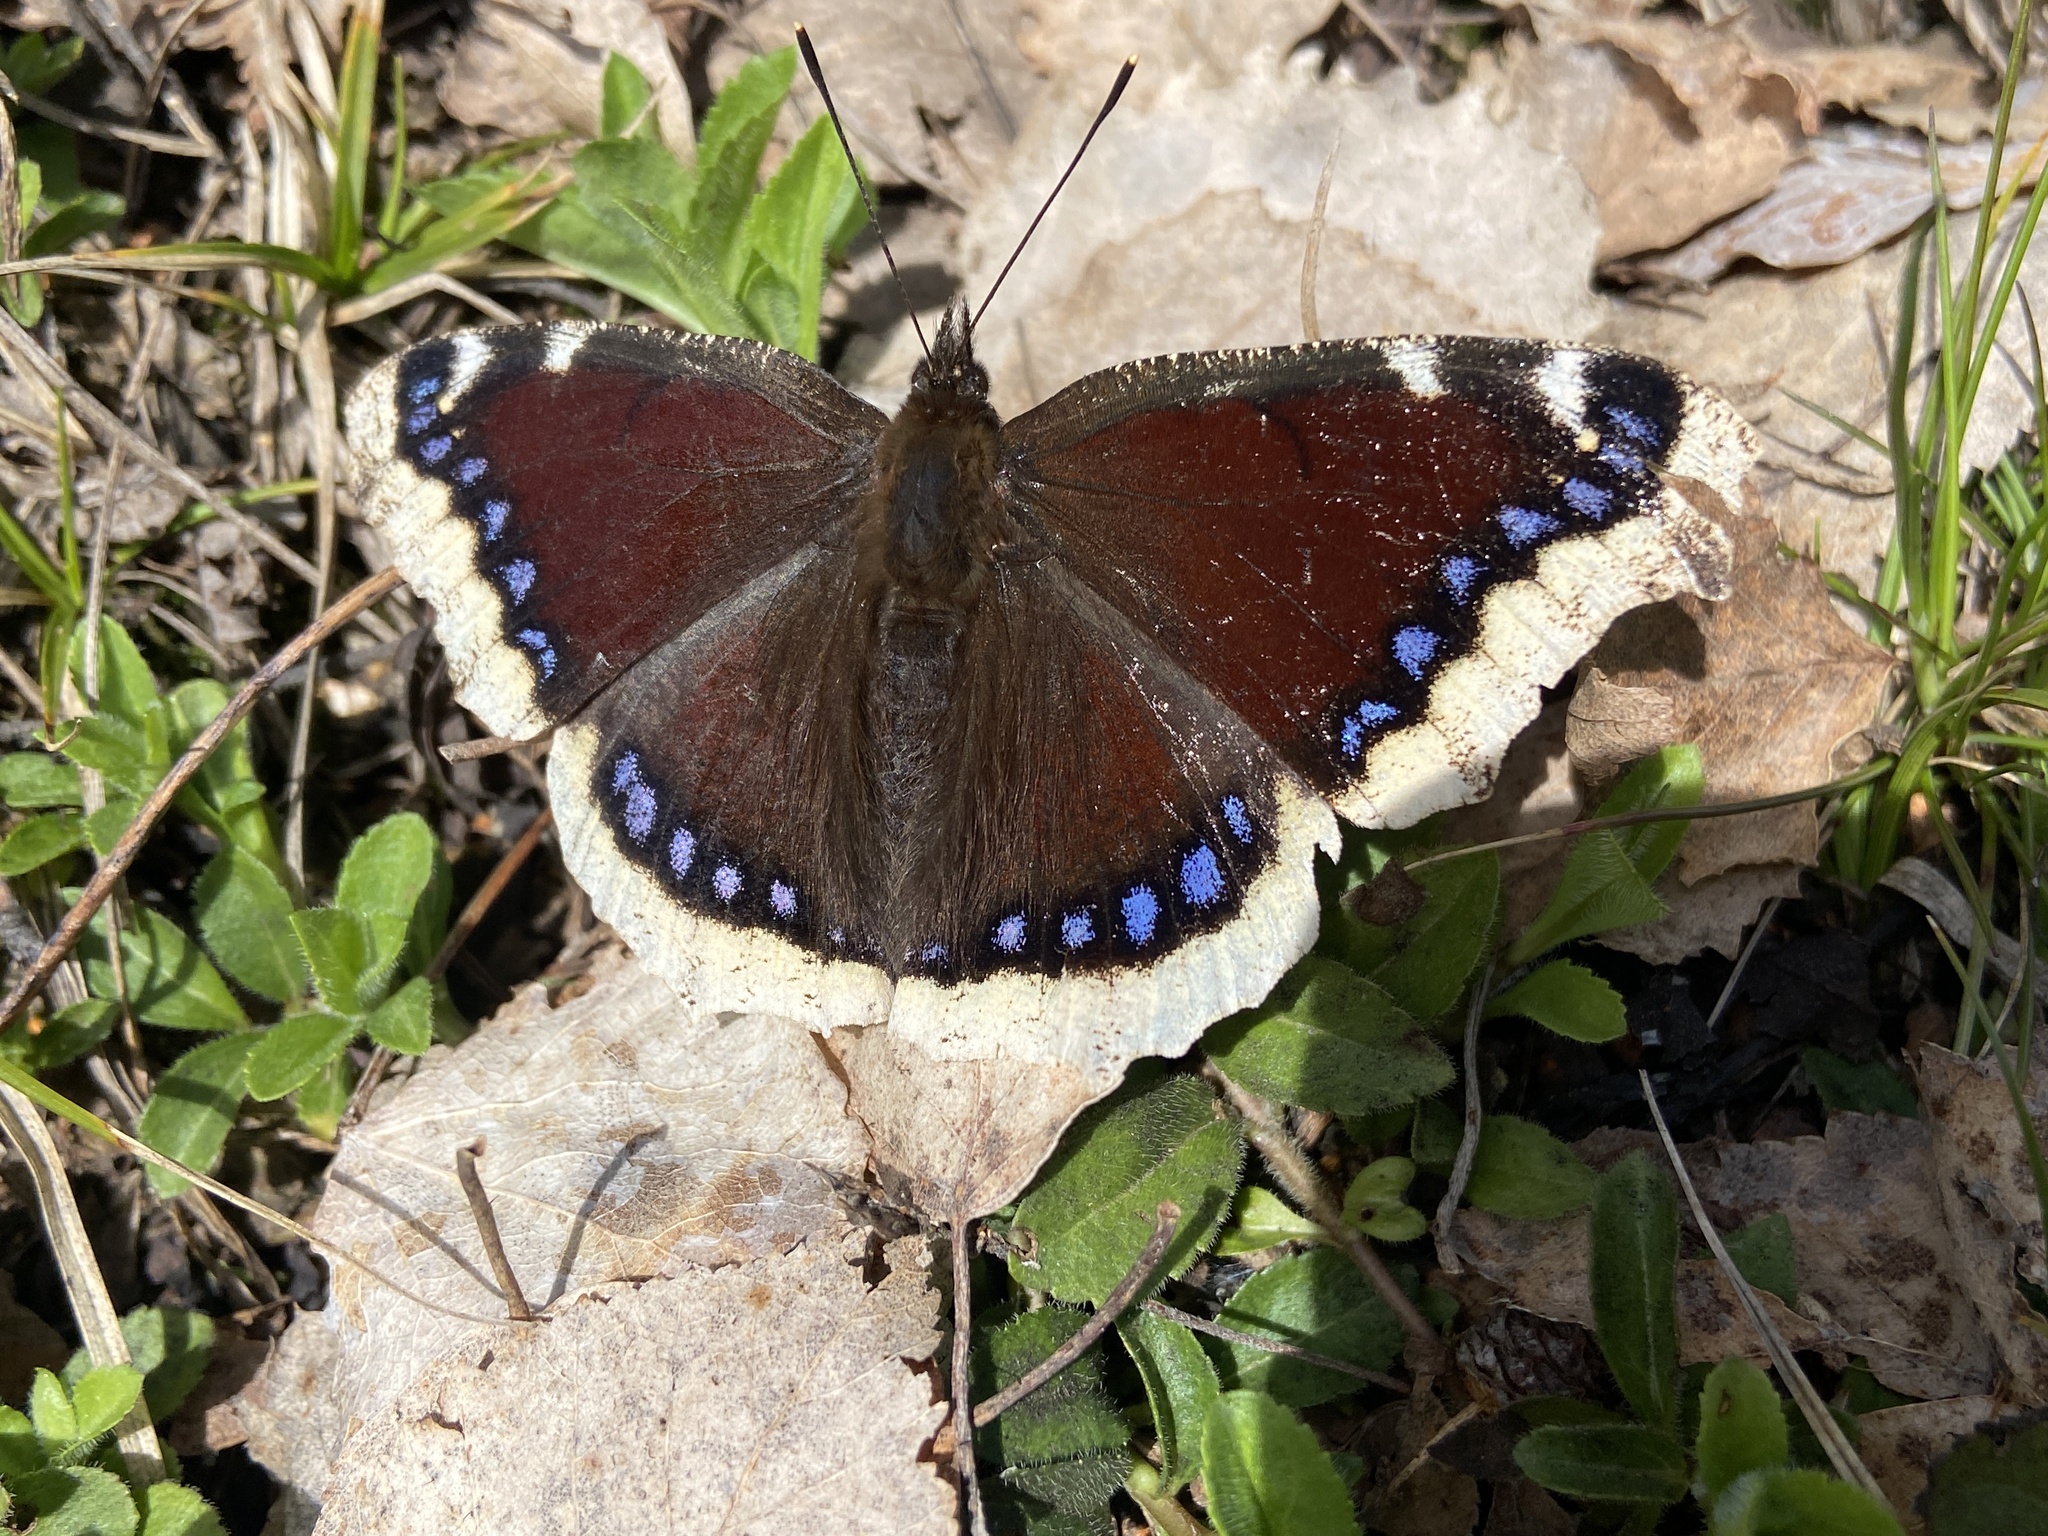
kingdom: Animalia
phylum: Arthropoda
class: Insecta
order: Lepidoptera
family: Nymphalidae
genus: Nymphalis
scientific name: Nymphalis antiopa
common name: Camberwell beauty
